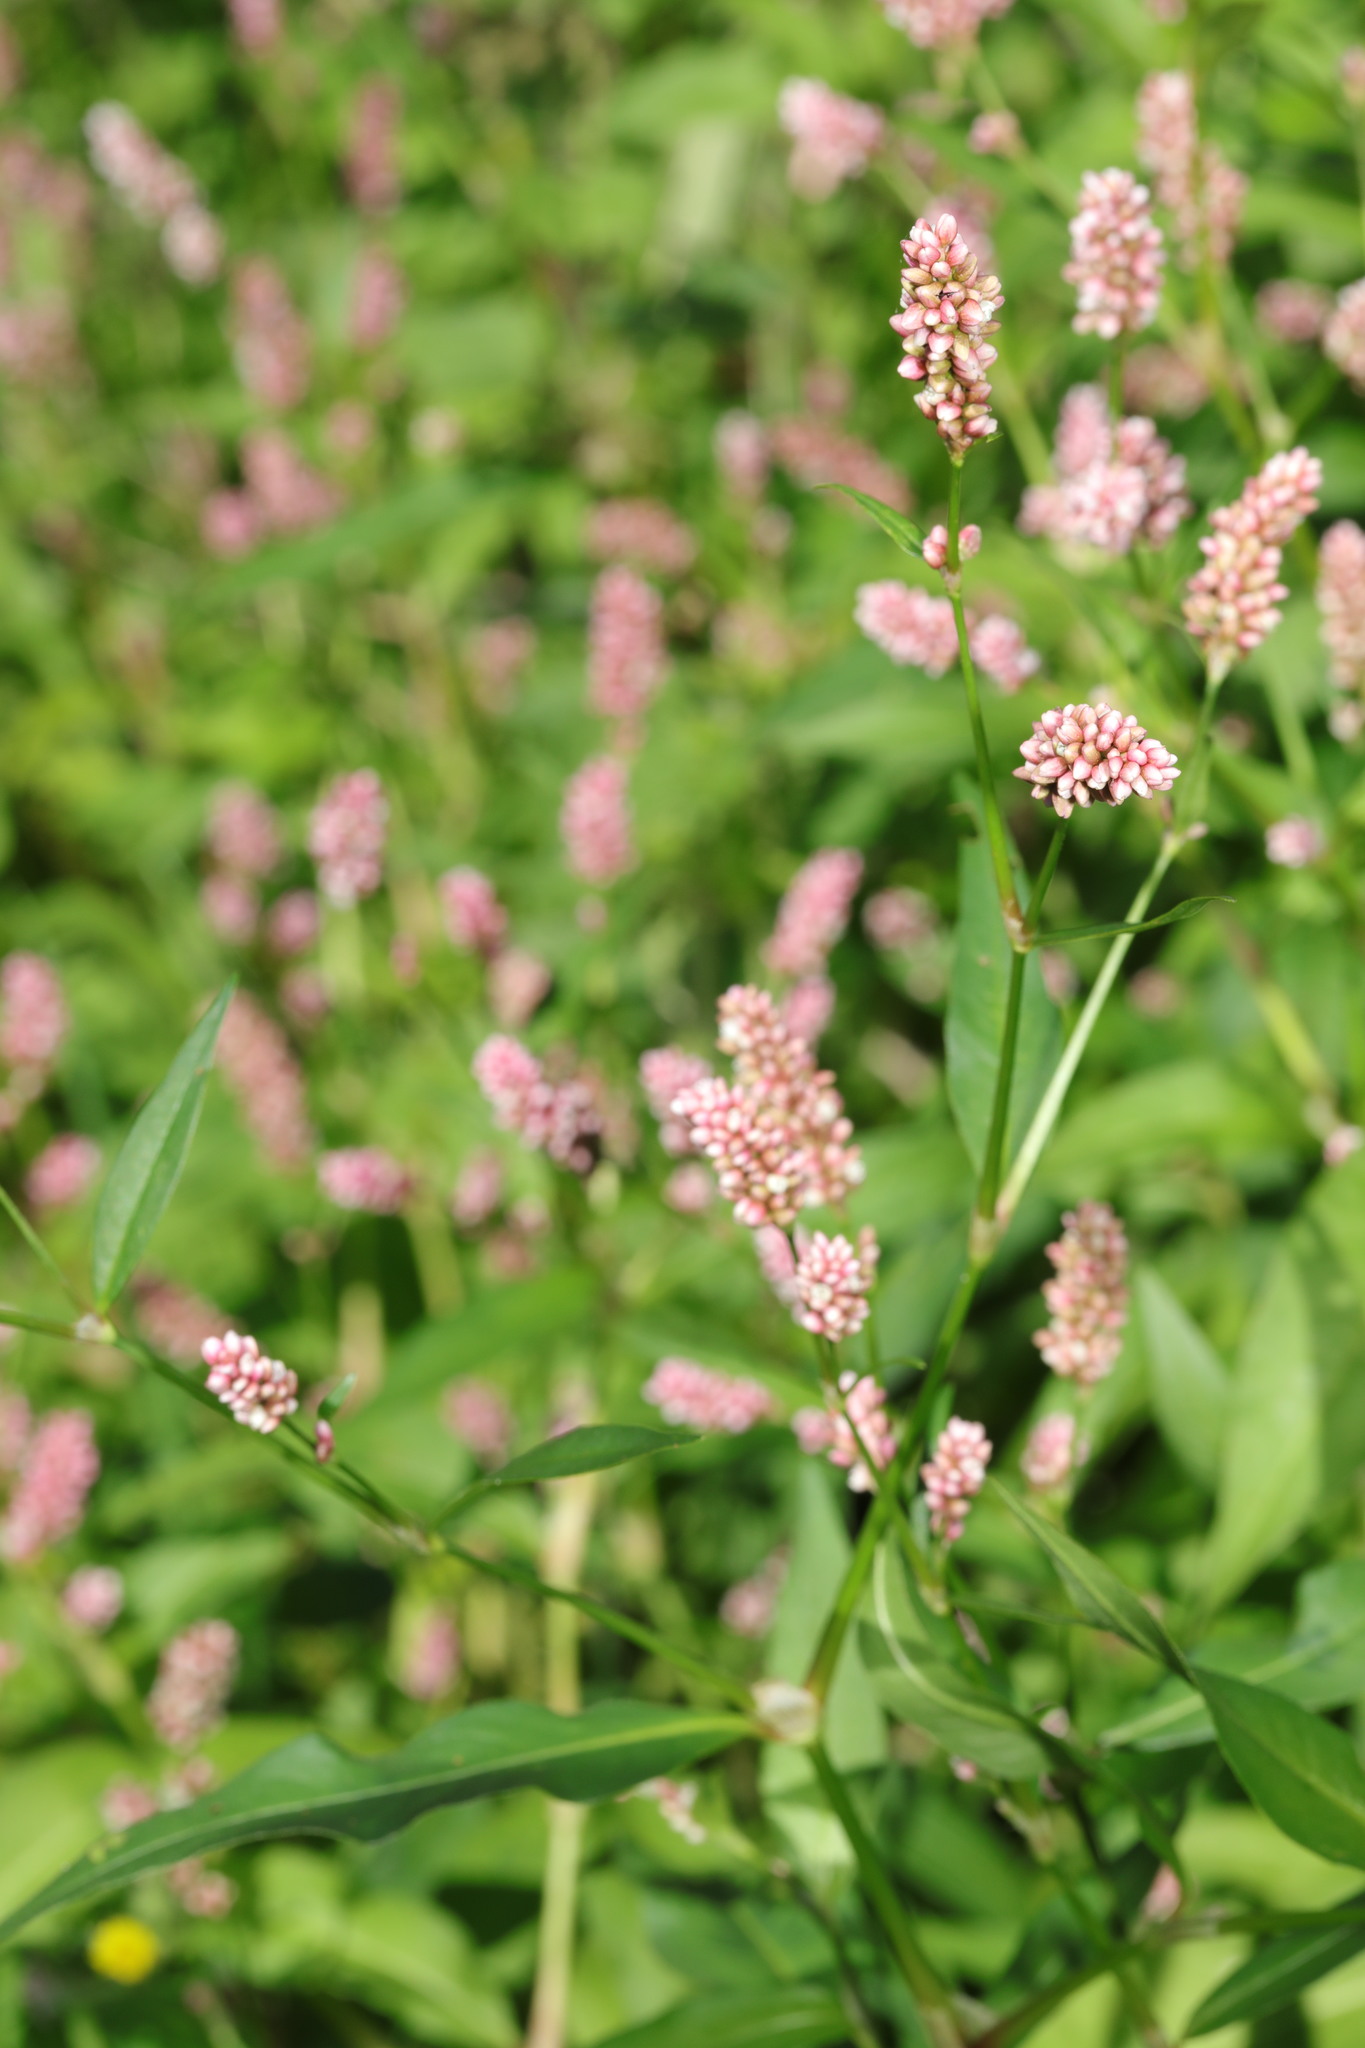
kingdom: Plantae
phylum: Tracheophyta
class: Magnoliopsida
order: Caryophyllales
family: Polygonaceae
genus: Persicaria
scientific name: Persicaria maculosa
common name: Redshank
